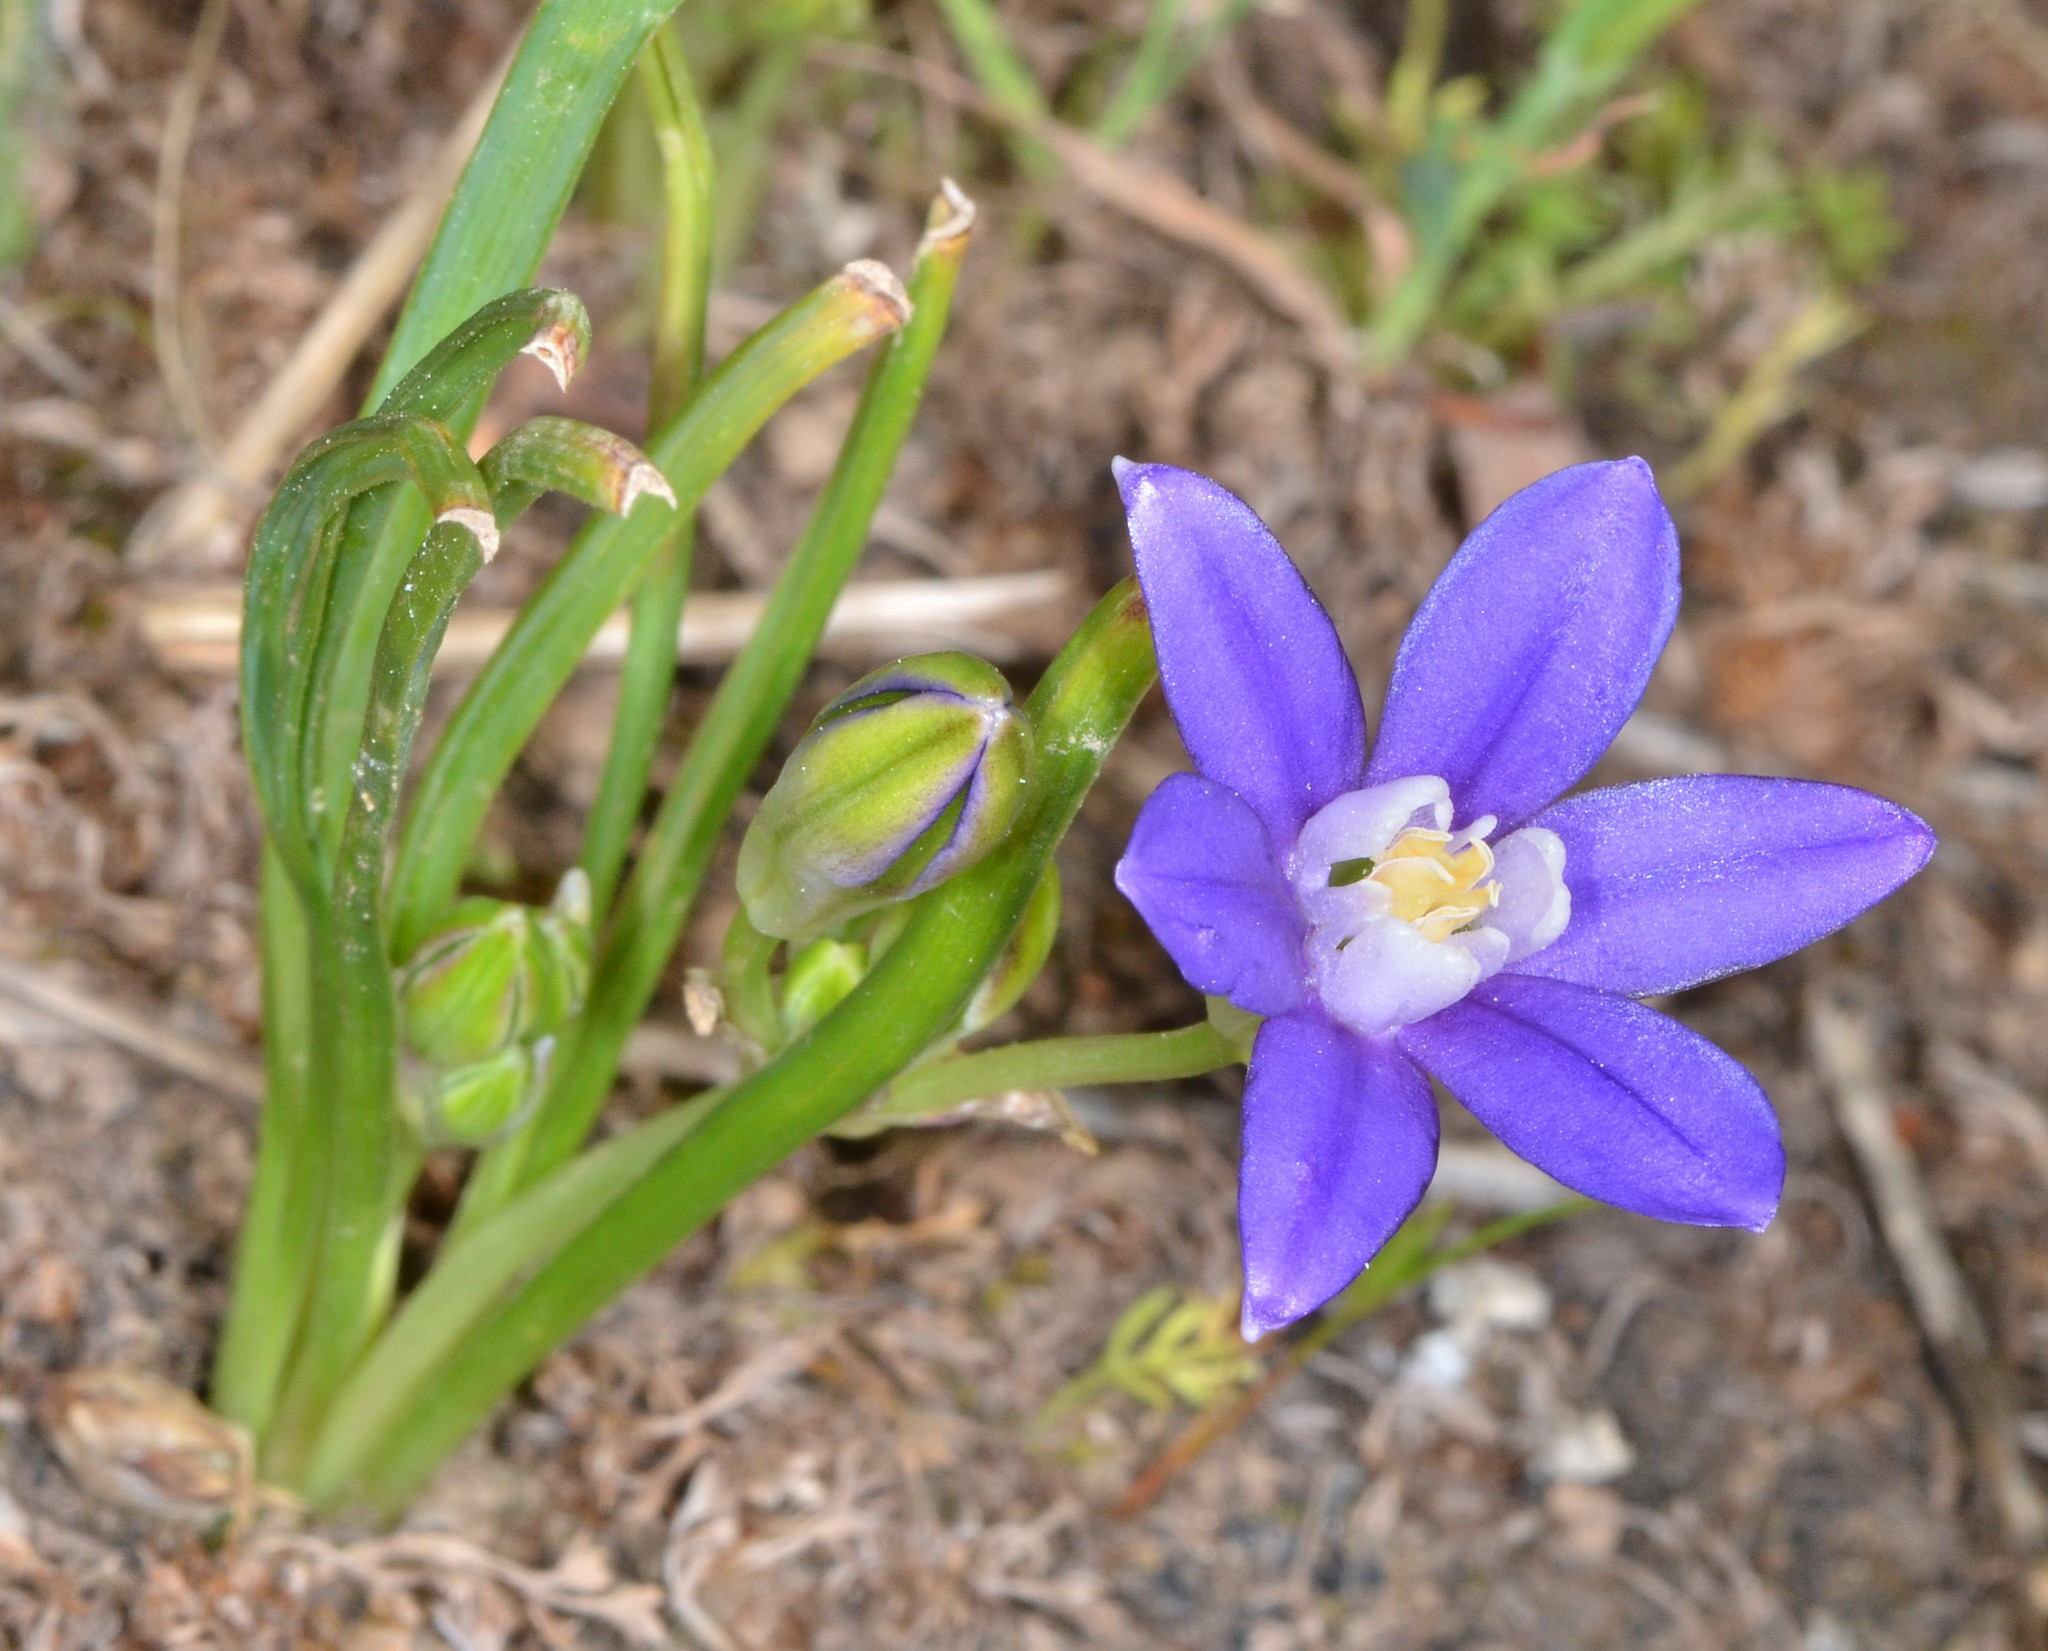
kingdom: Plantae
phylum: Tracheophyta
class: Liliopsida
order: Asparagales
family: Asparagaceae
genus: Brodiaea
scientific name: Brodiaea stellaris
